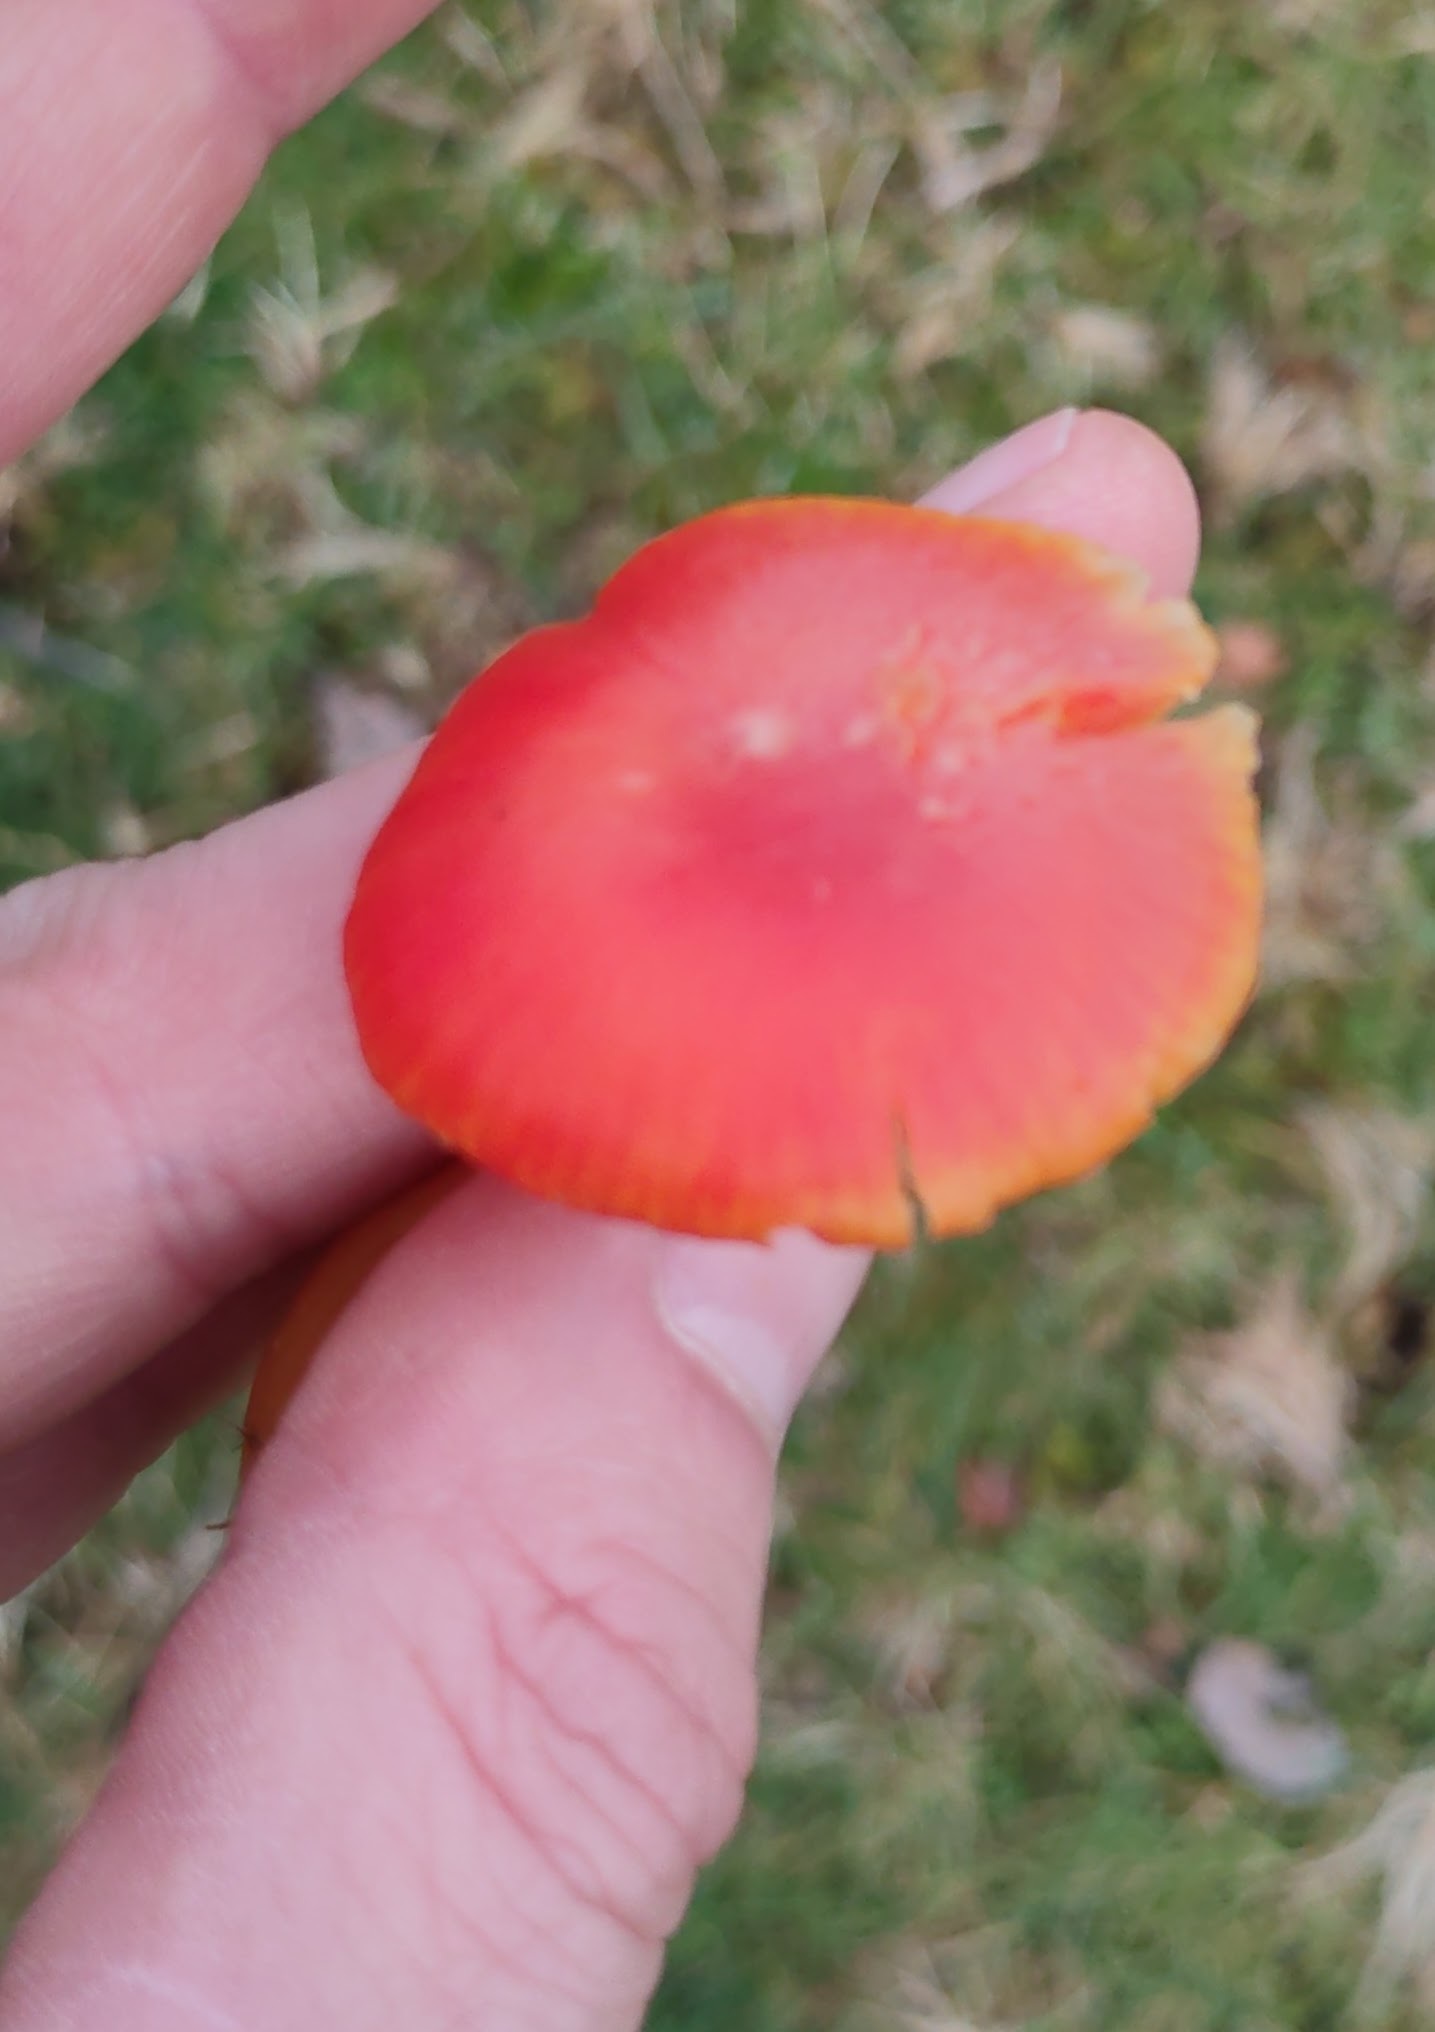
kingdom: Fungi
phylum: Basidiomycota
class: Agaricomycetes
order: Agaricales
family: Hygrophoraceae
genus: Hygrocybe
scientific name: Hygrocybe reidii
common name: Honey waxcap
